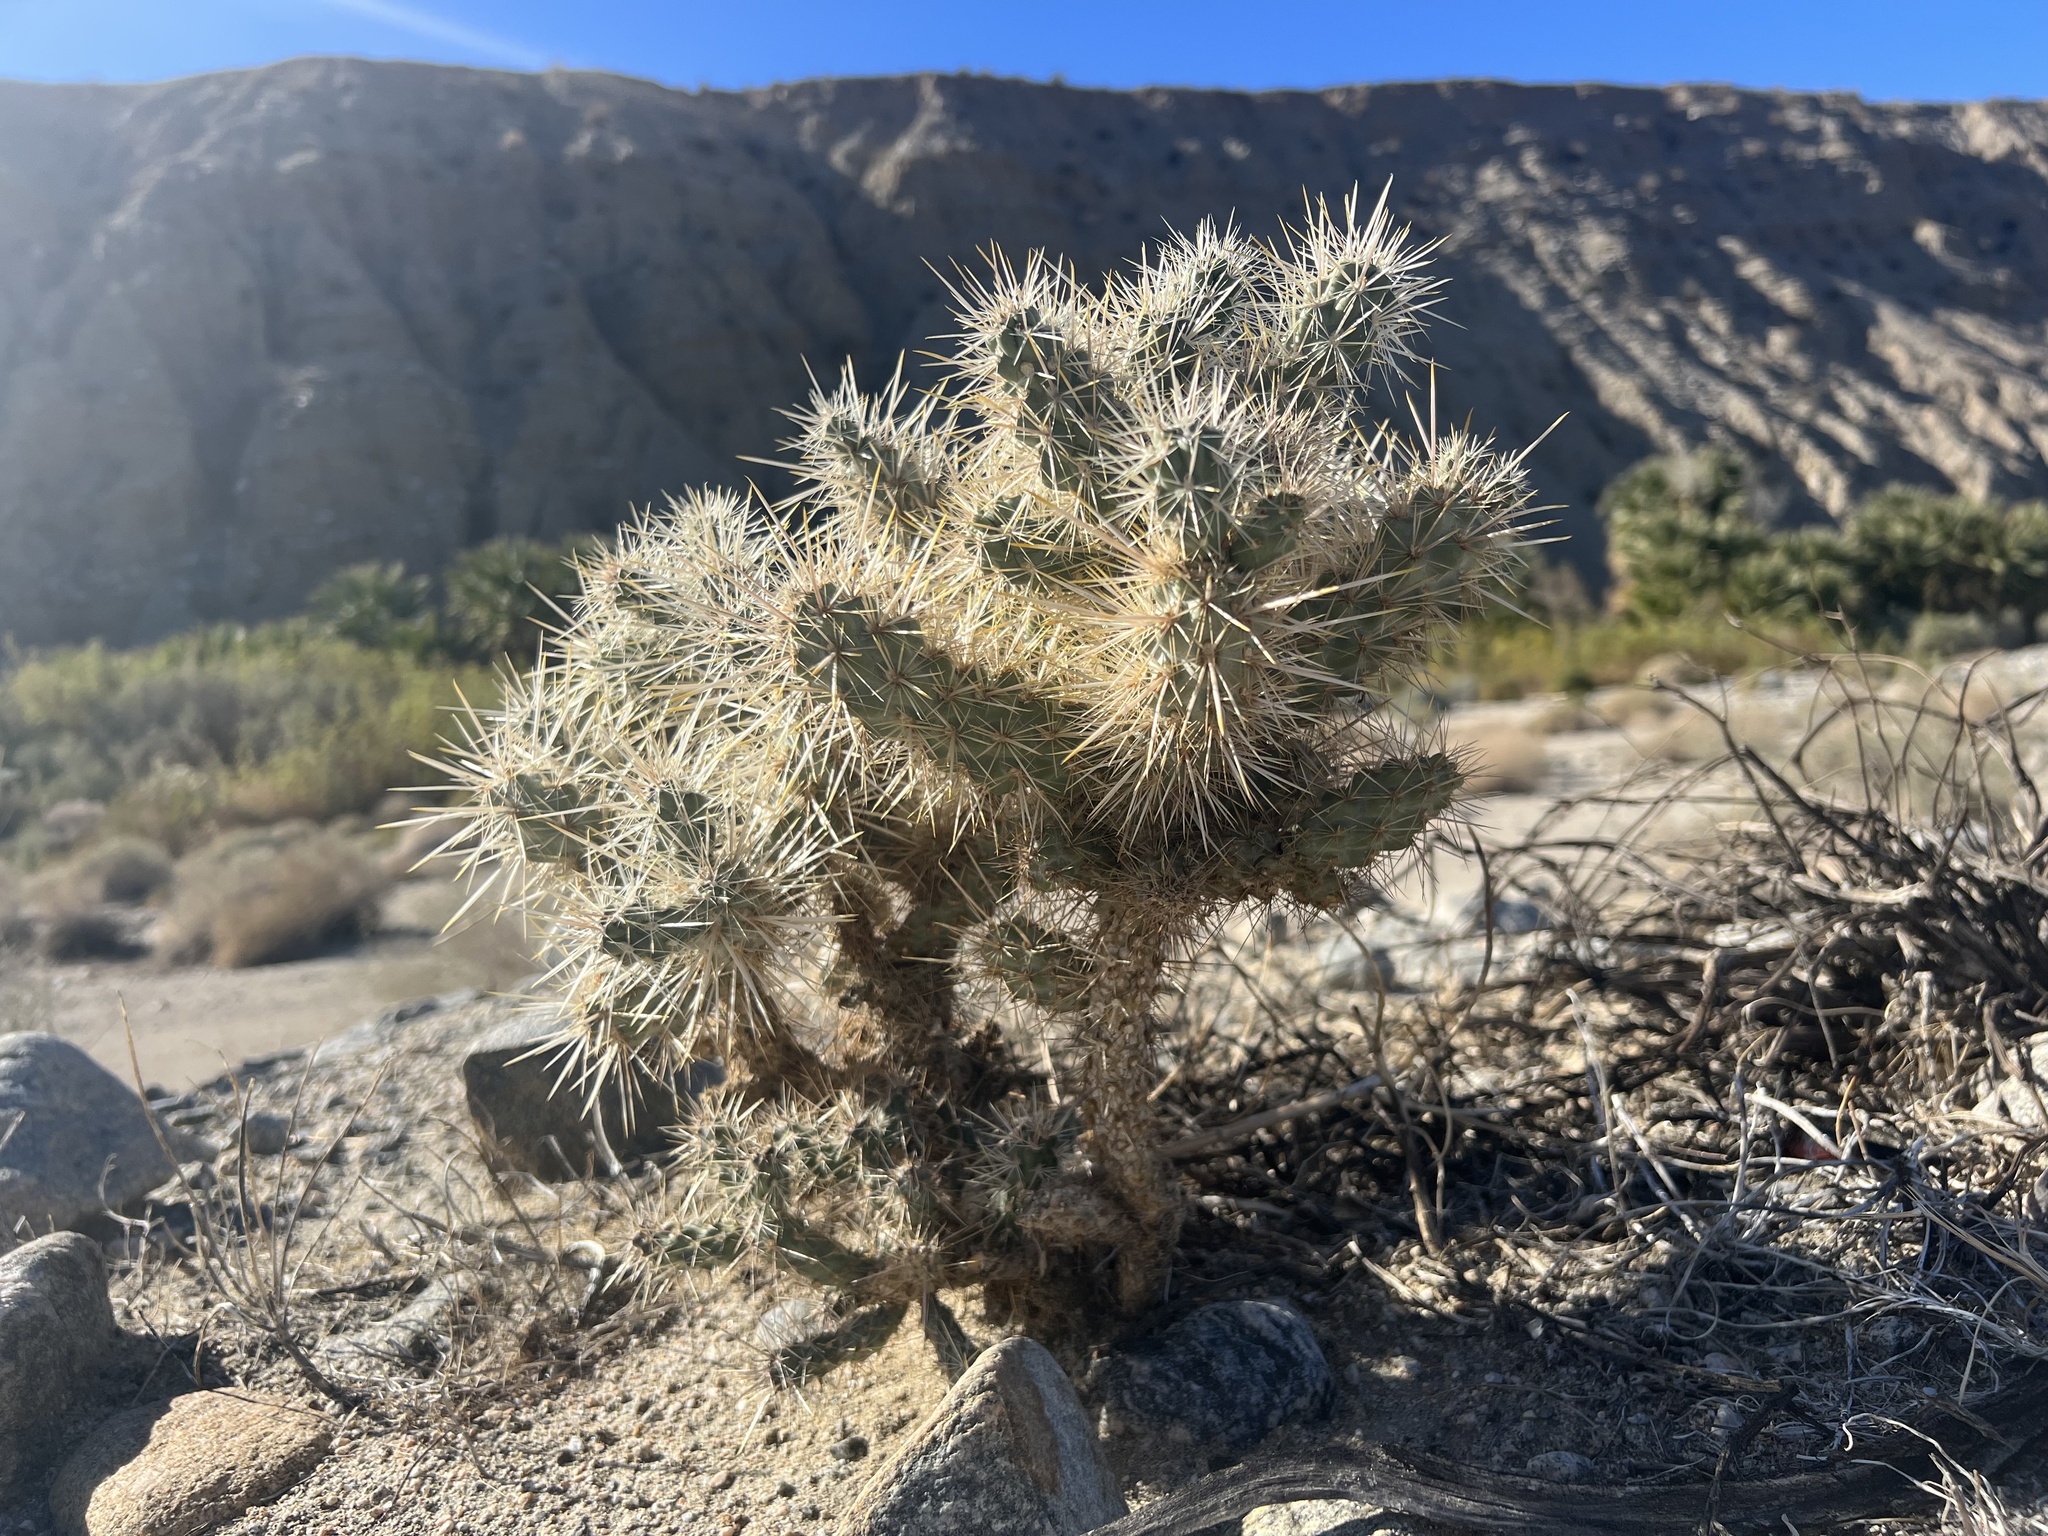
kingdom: Plantae
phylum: Tracheophyta
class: Magnoliopsida
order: Caryophyllales
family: Cactaceae
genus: Cylindropuntia
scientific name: Cylindropuntia echinocarpa
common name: Ground cholla
